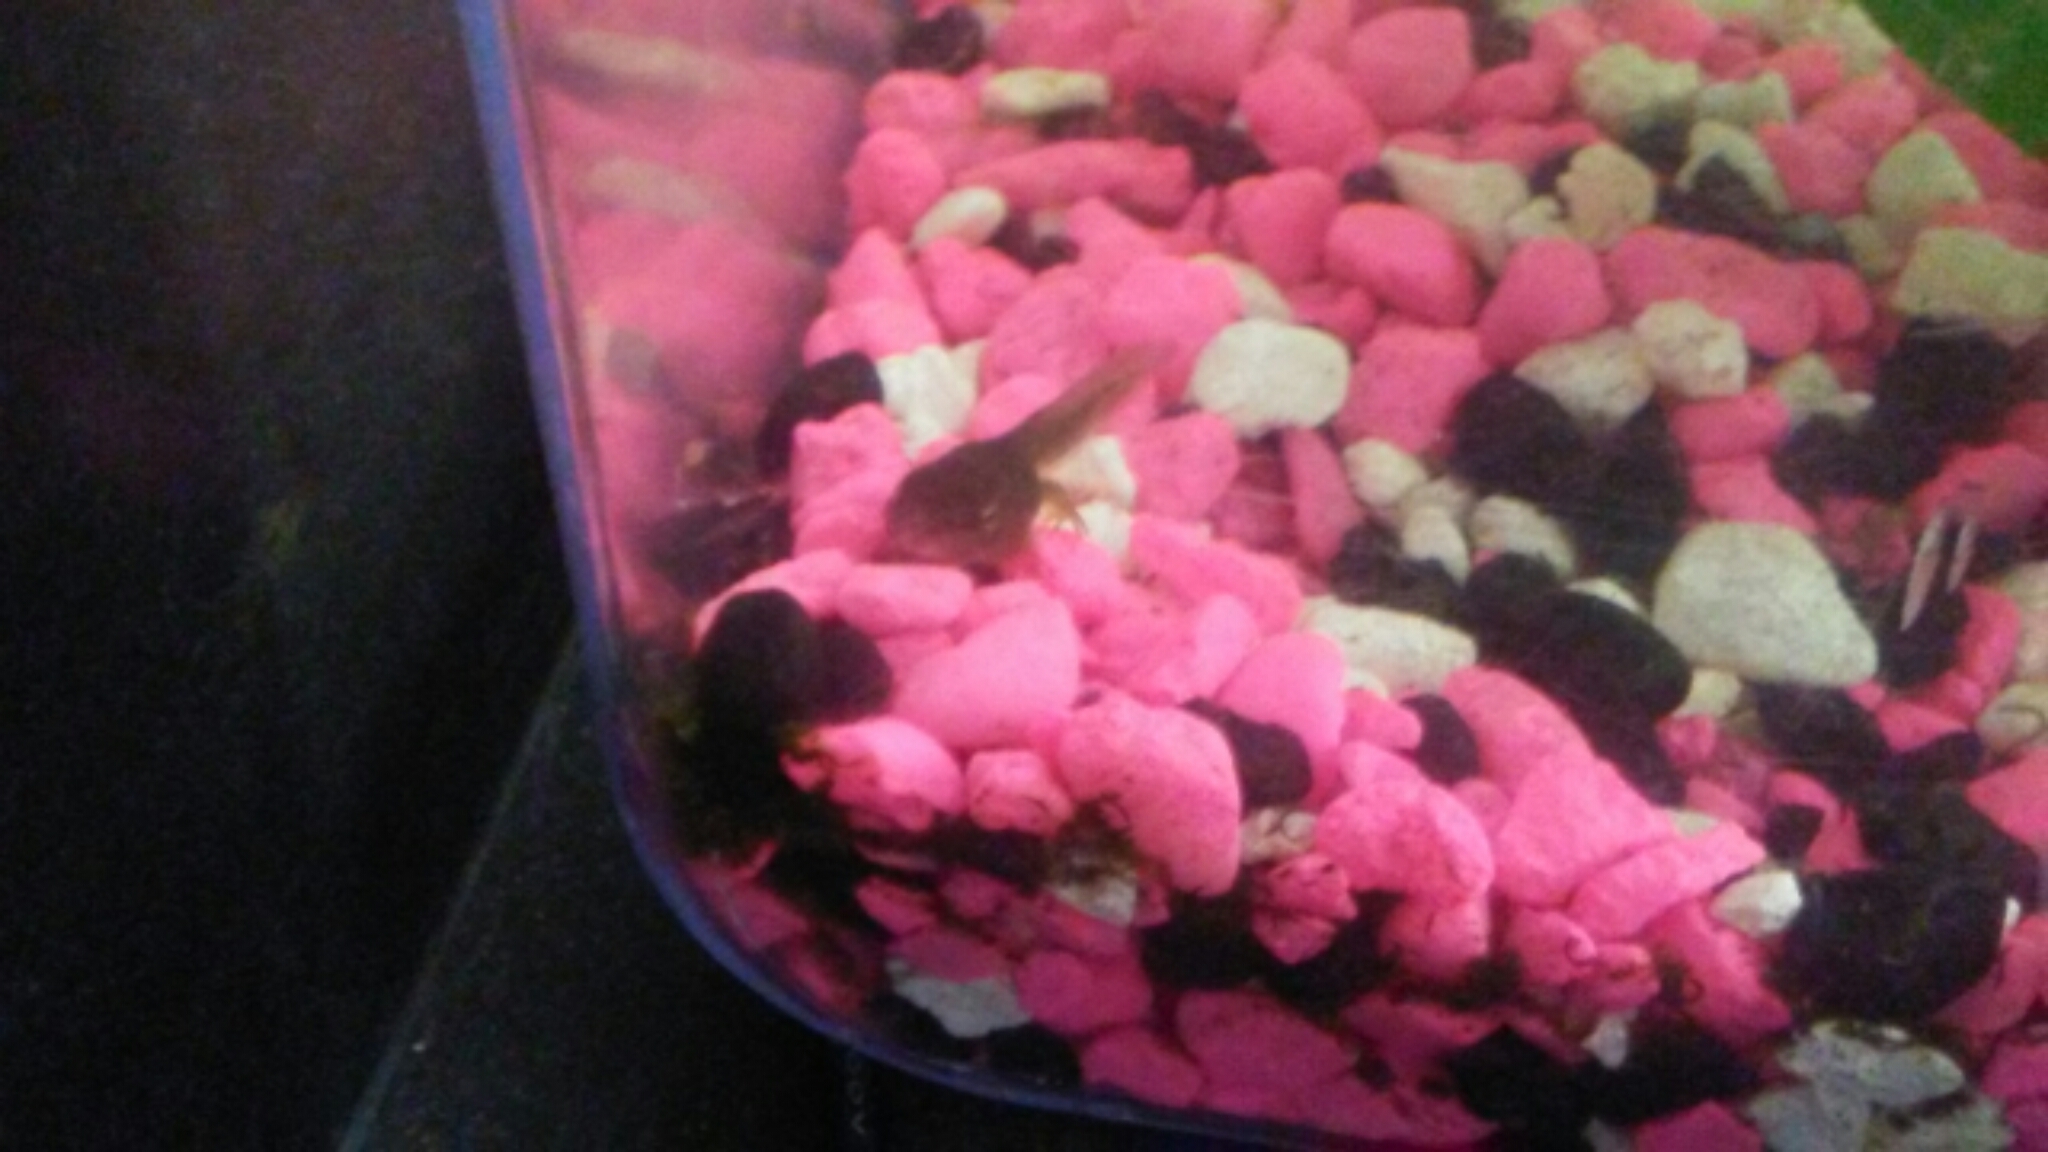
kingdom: Animalia
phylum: Chordata
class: Amphibia
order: Anura
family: Hylidae
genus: Pseudacris
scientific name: Pseudacris regilla
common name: Pacific chorus frog
